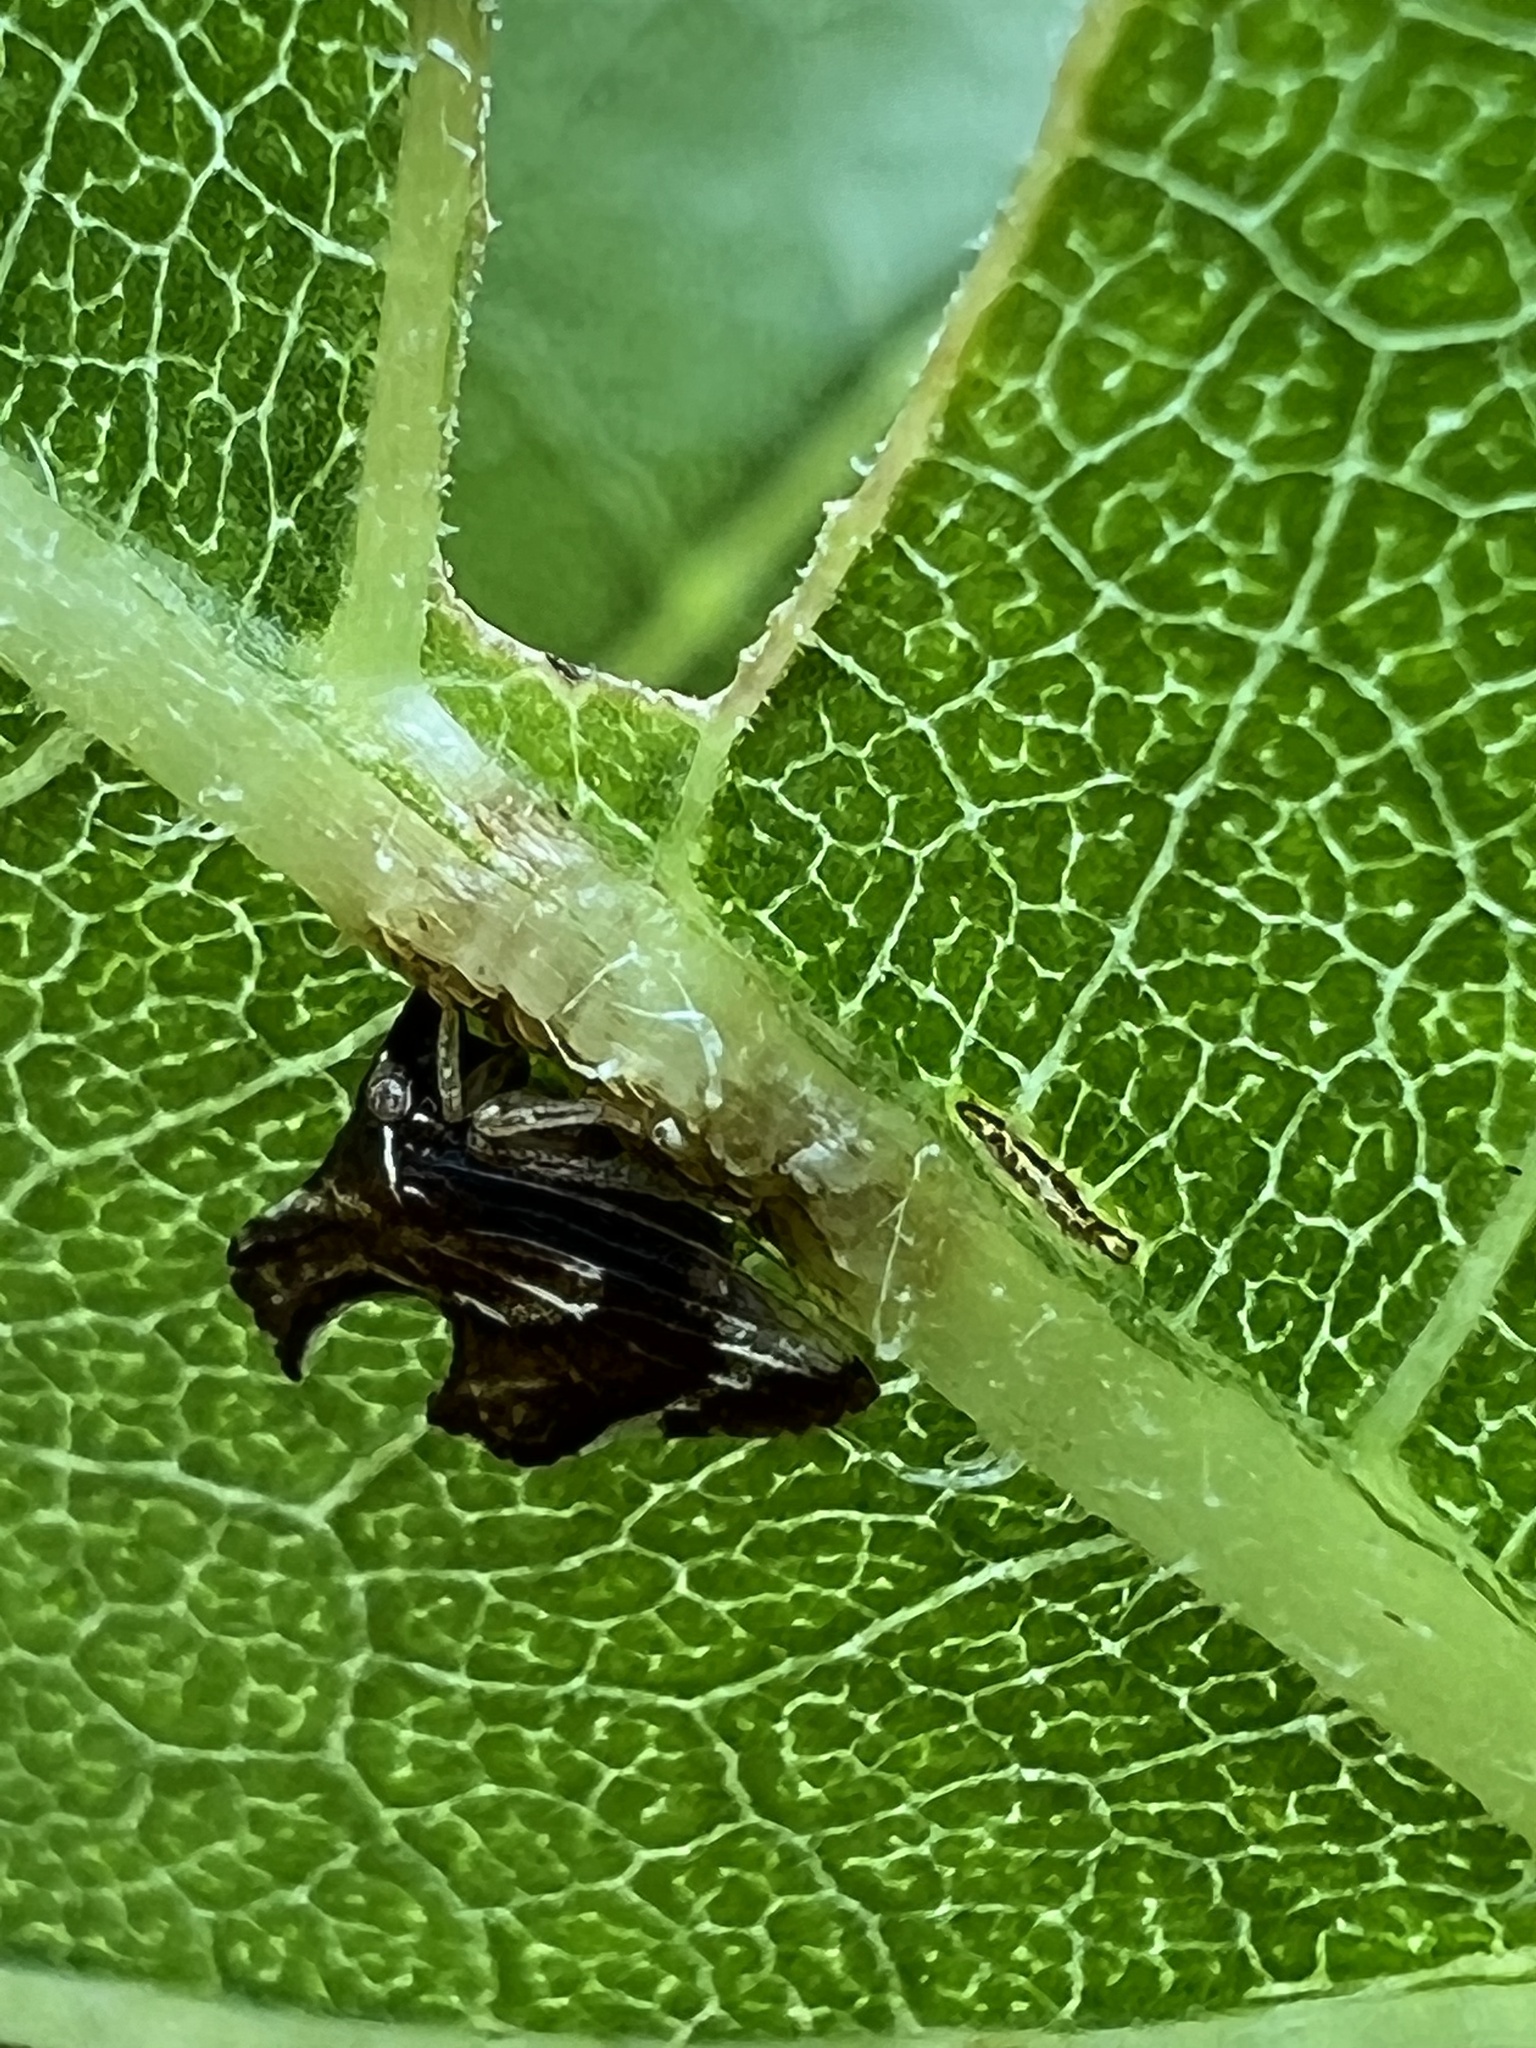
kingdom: Animalia
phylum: Arthropoda
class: Insecta
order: Hemiptera
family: Membracidae
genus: Entylia
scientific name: Entylia carinata
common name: Keeled treehopper
